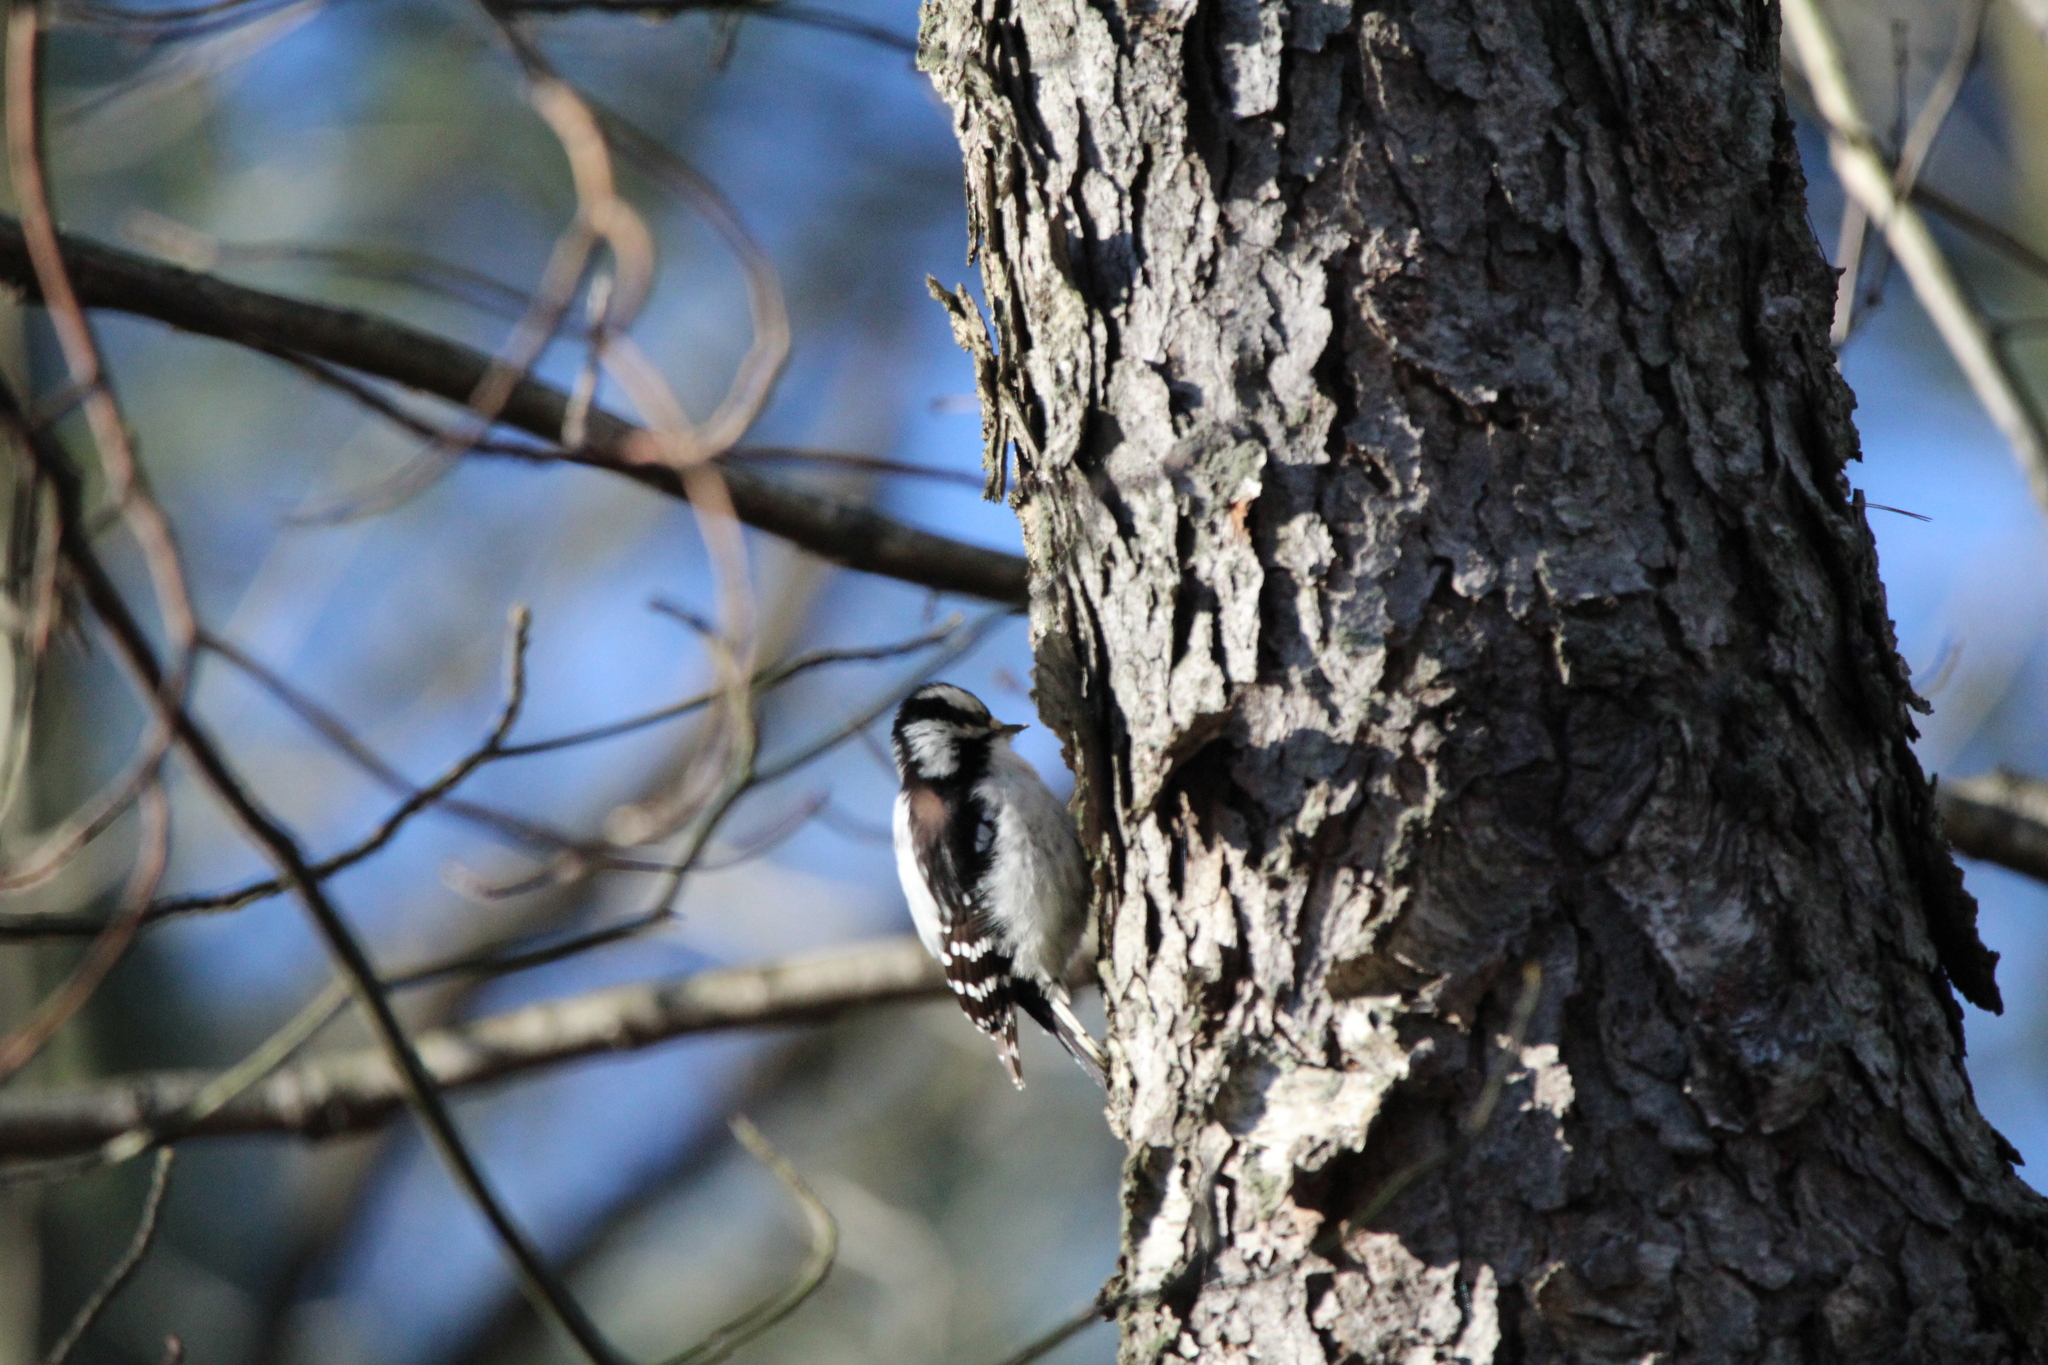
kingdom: Animalia
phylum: Chordata
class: Aves
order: Piciformes
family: Picidae
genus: Dryobates
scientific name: Dryobates pubescens
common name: Downy woodpecker
